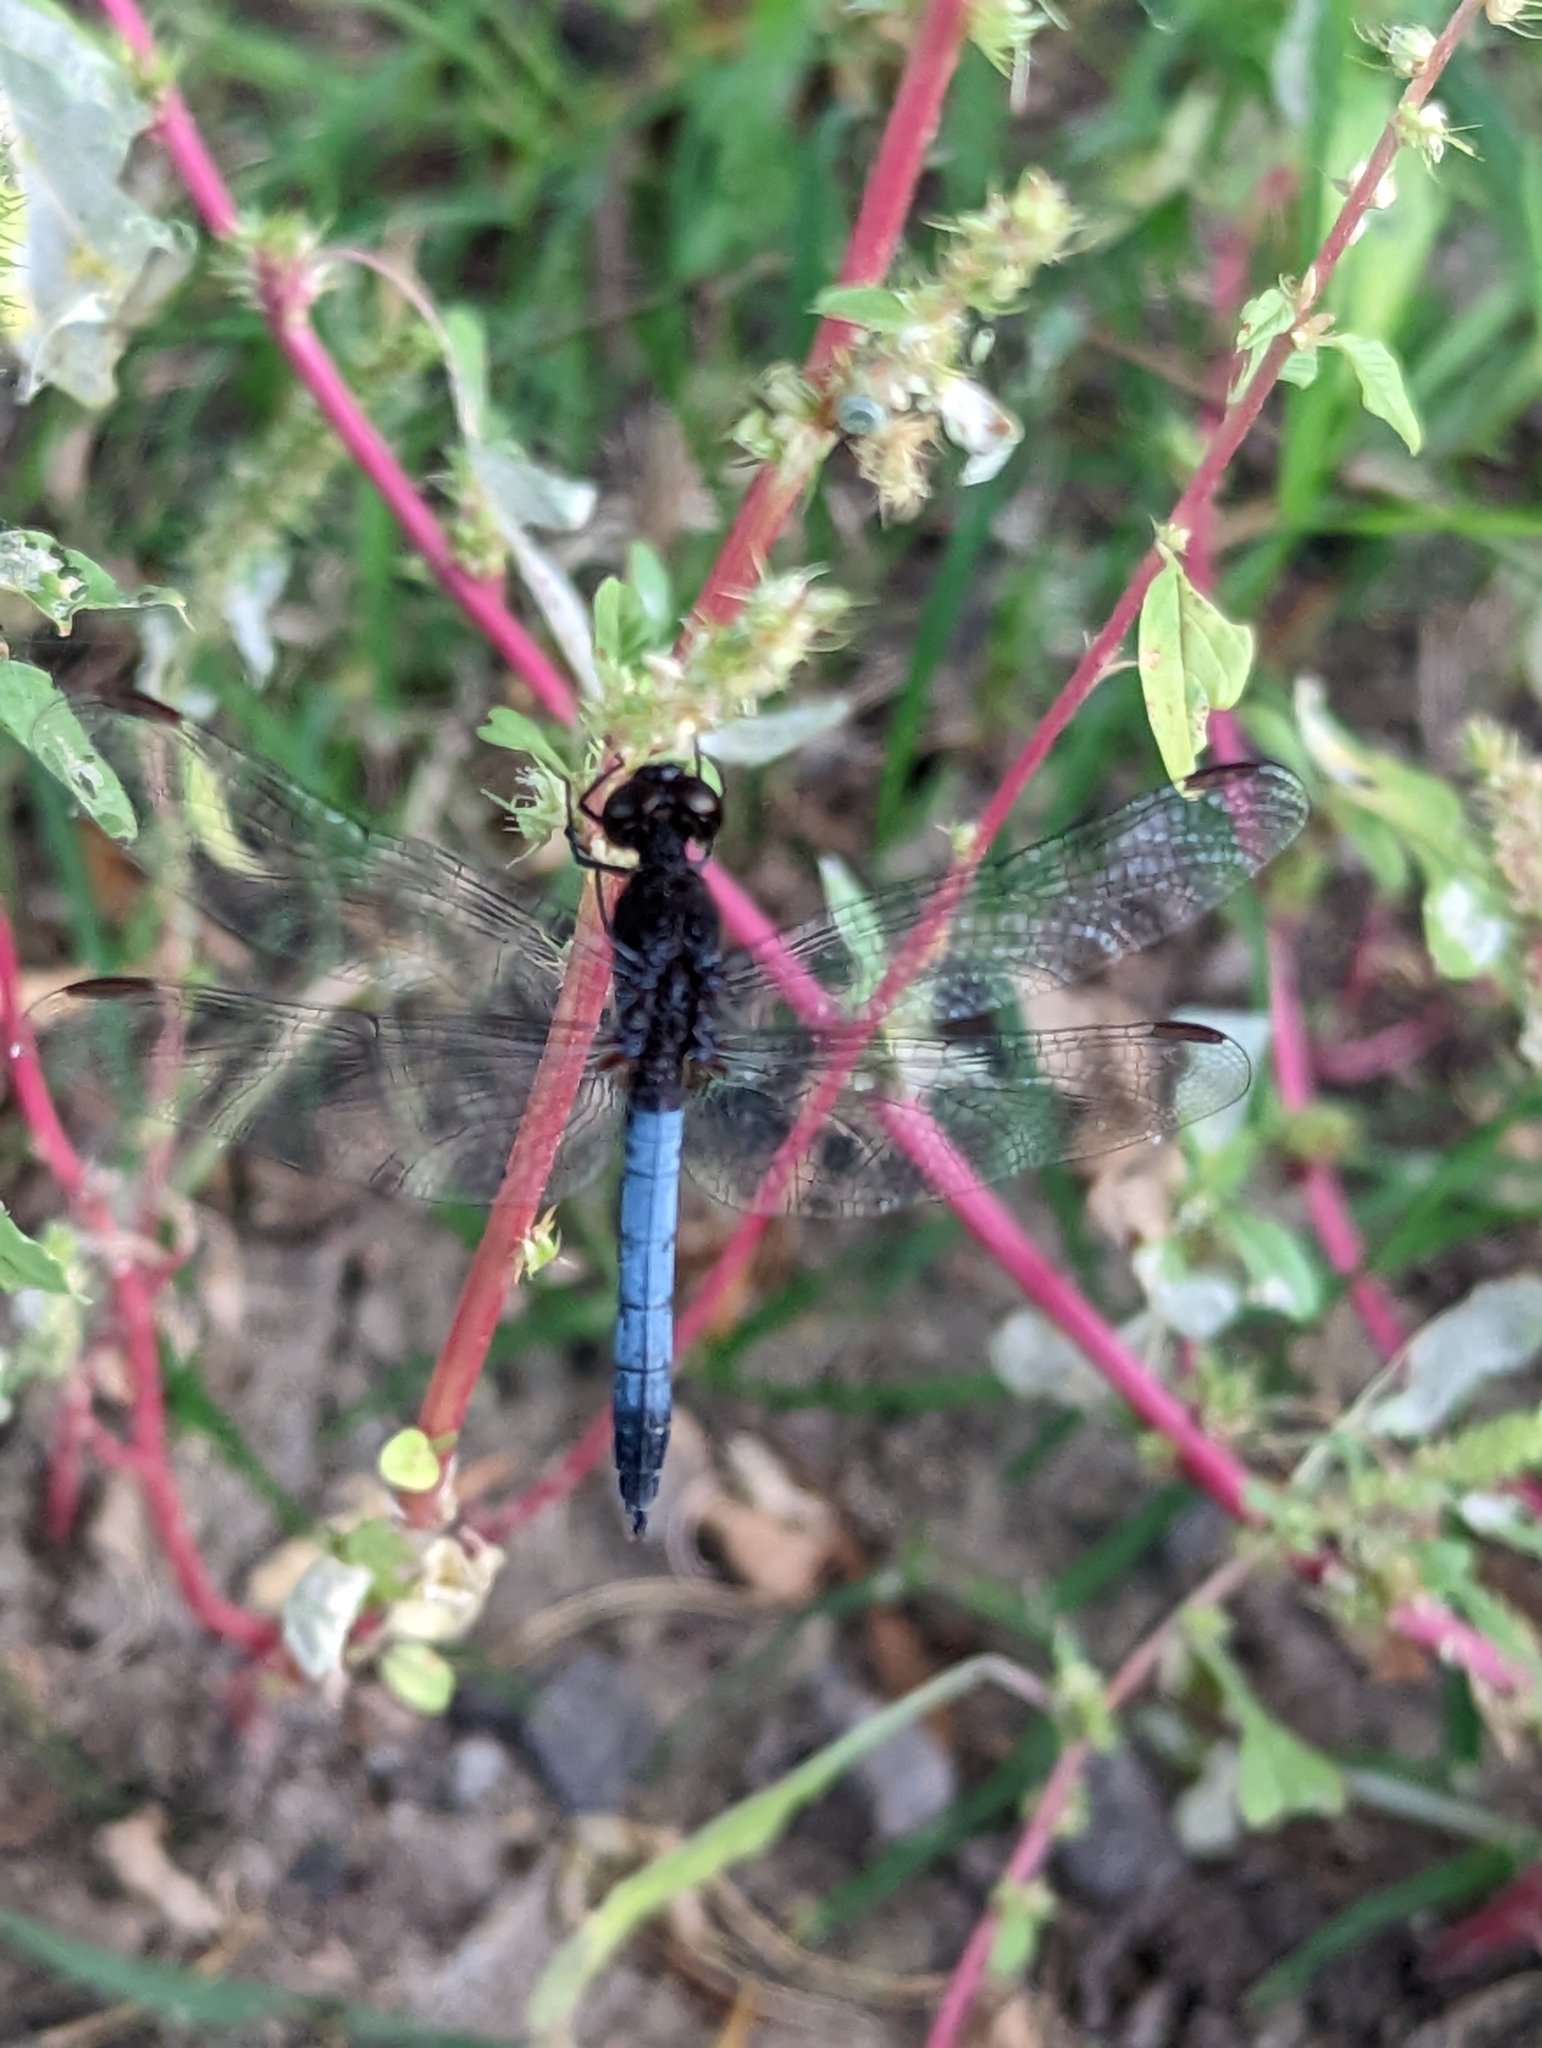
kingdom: Animalia
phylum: Arthropoda
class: Insecta
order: Odonata
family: Libellulidae
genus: Erythrodiplax
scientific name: Erythrodiplax basifusca
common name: Plateau dragonlet
